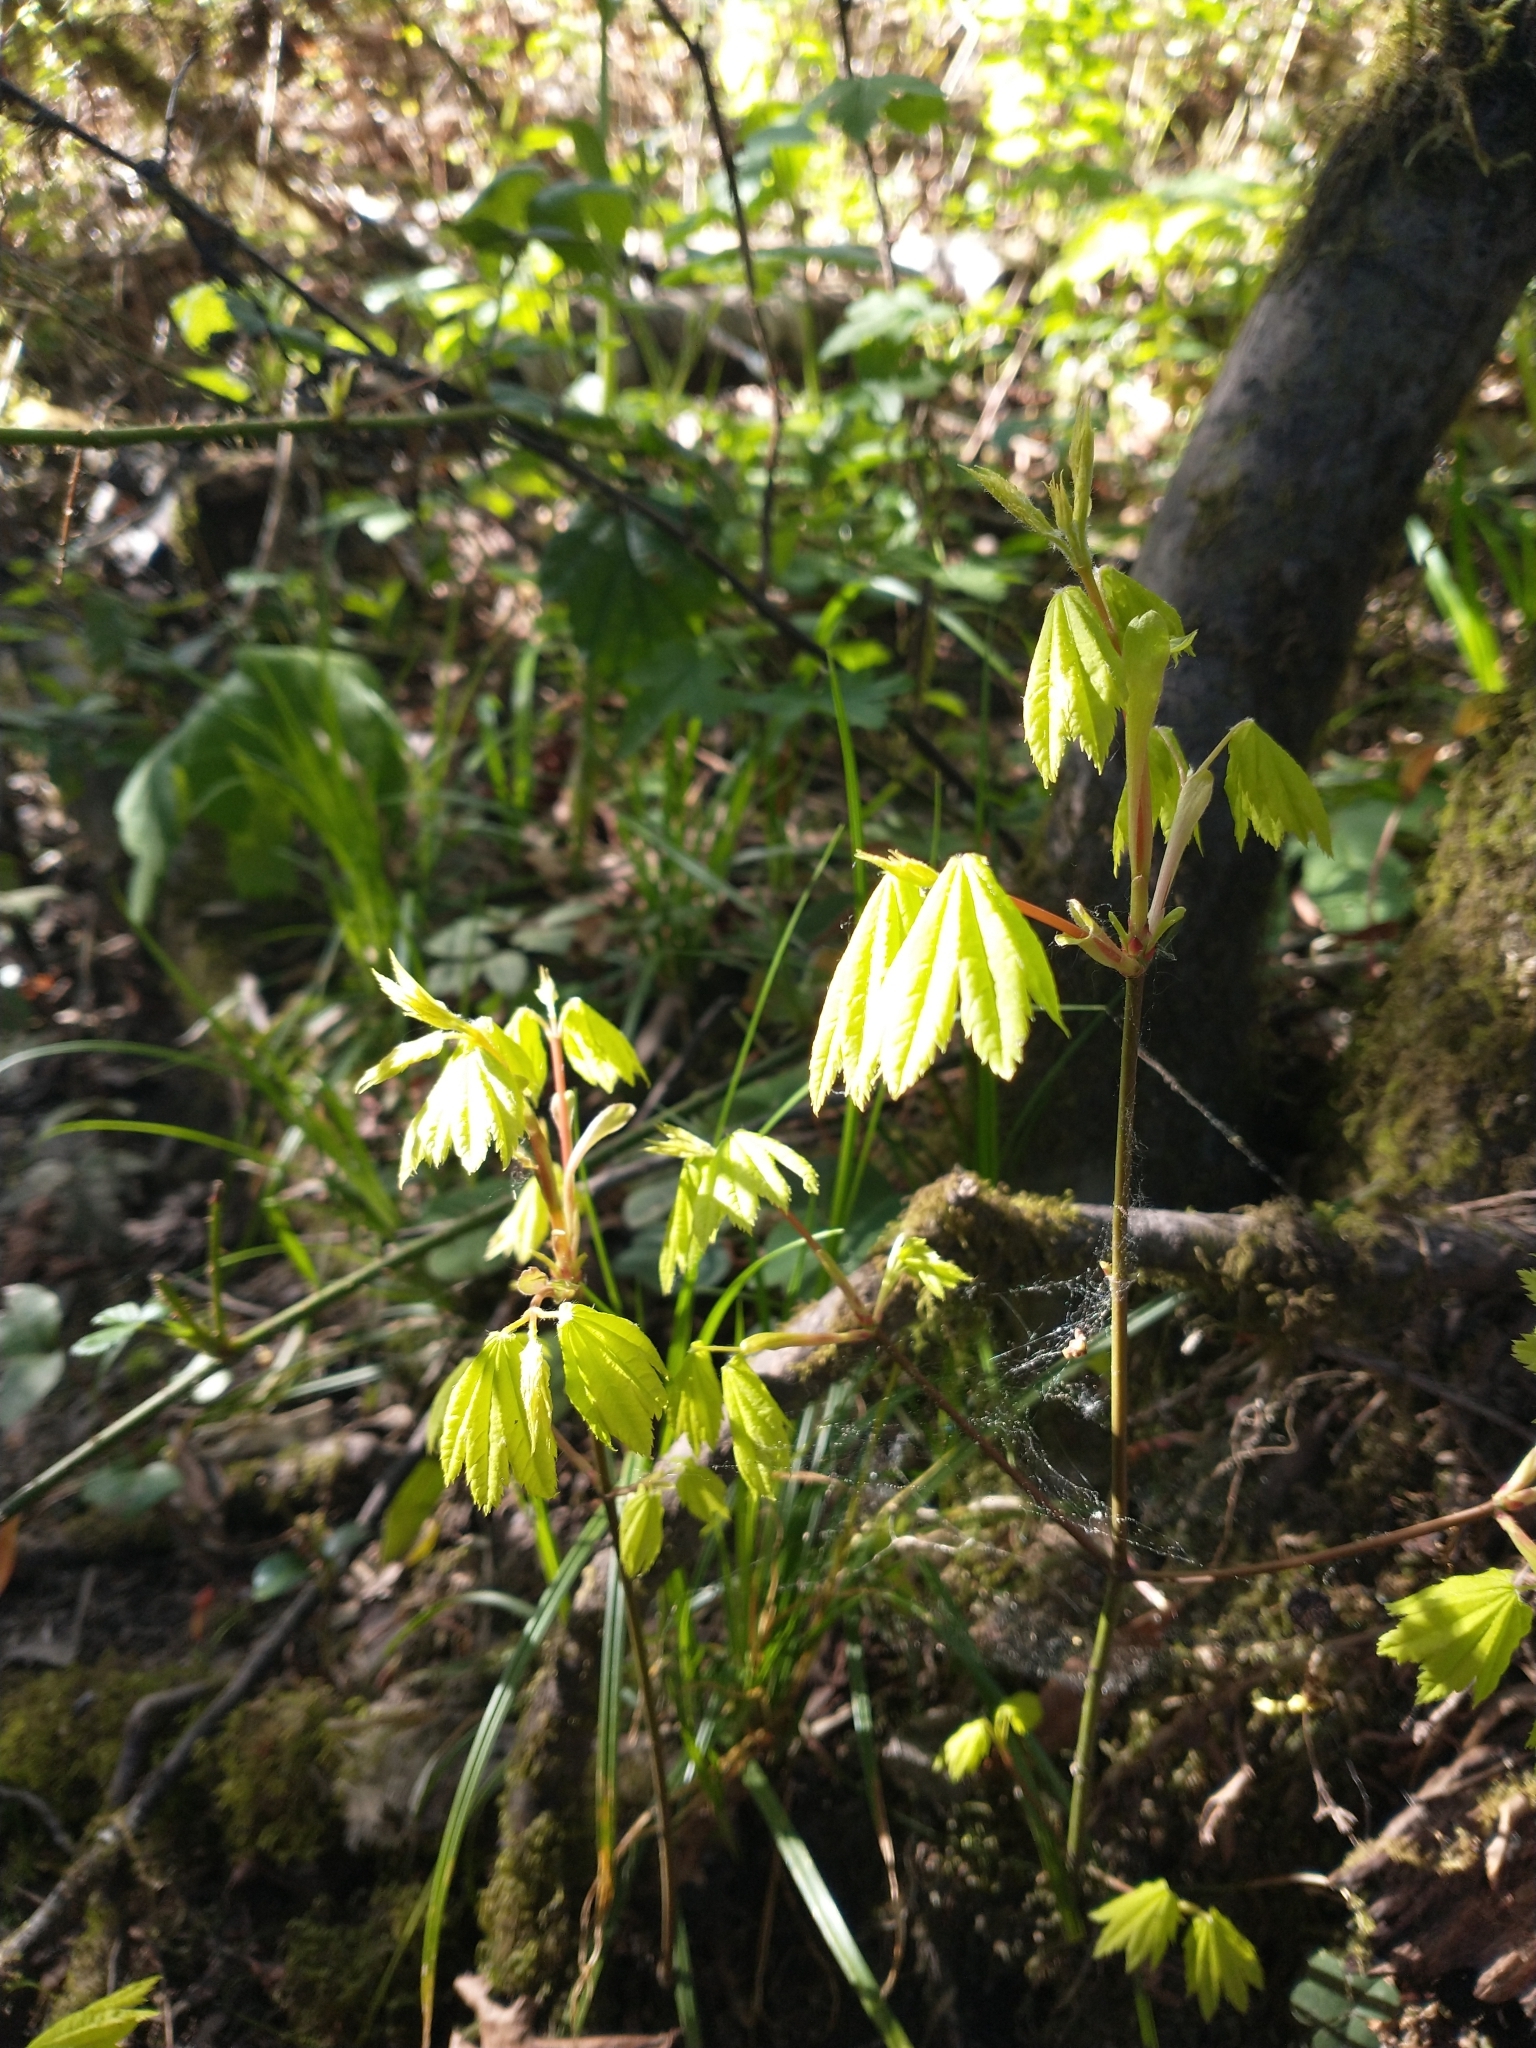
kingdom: Plantae
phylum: Tracheophyta
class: Magnoliopsida
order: Sapindales
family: Sapindaceae
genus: Acer
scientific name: Acer circinatum
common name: Vine maple
